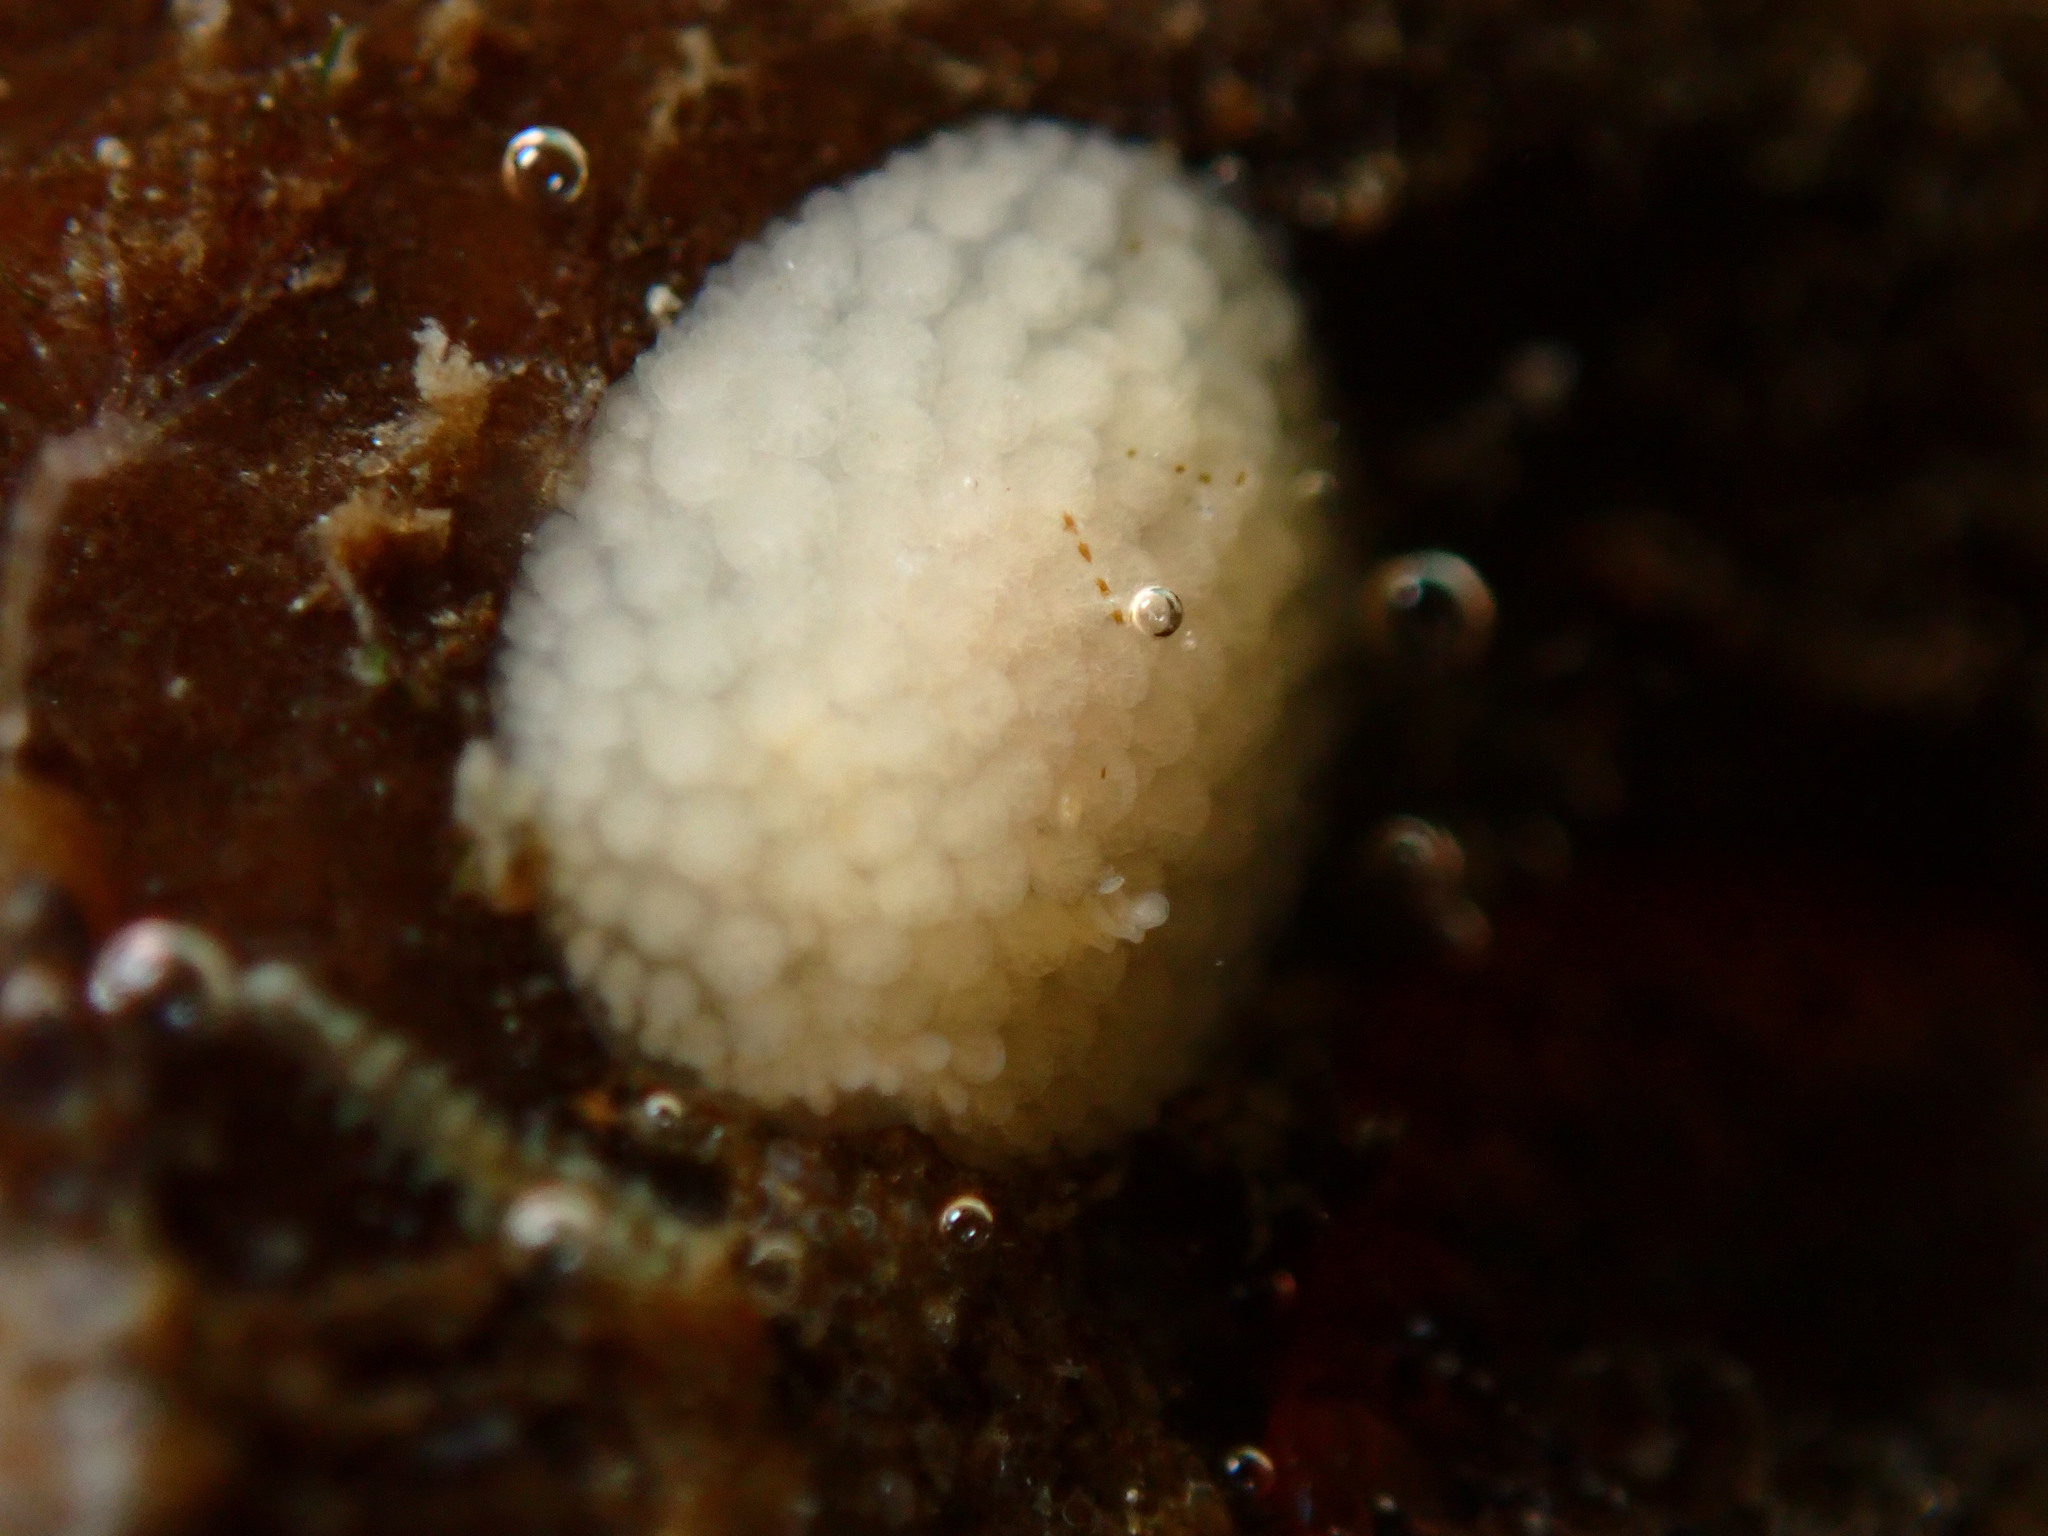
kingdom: Animalia
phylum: Mollusca
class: Gastropoda
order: Nudibranchia
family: Onchidorididae
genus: Onchidoris
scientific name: Onchidoris muricata
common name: Rough doris
